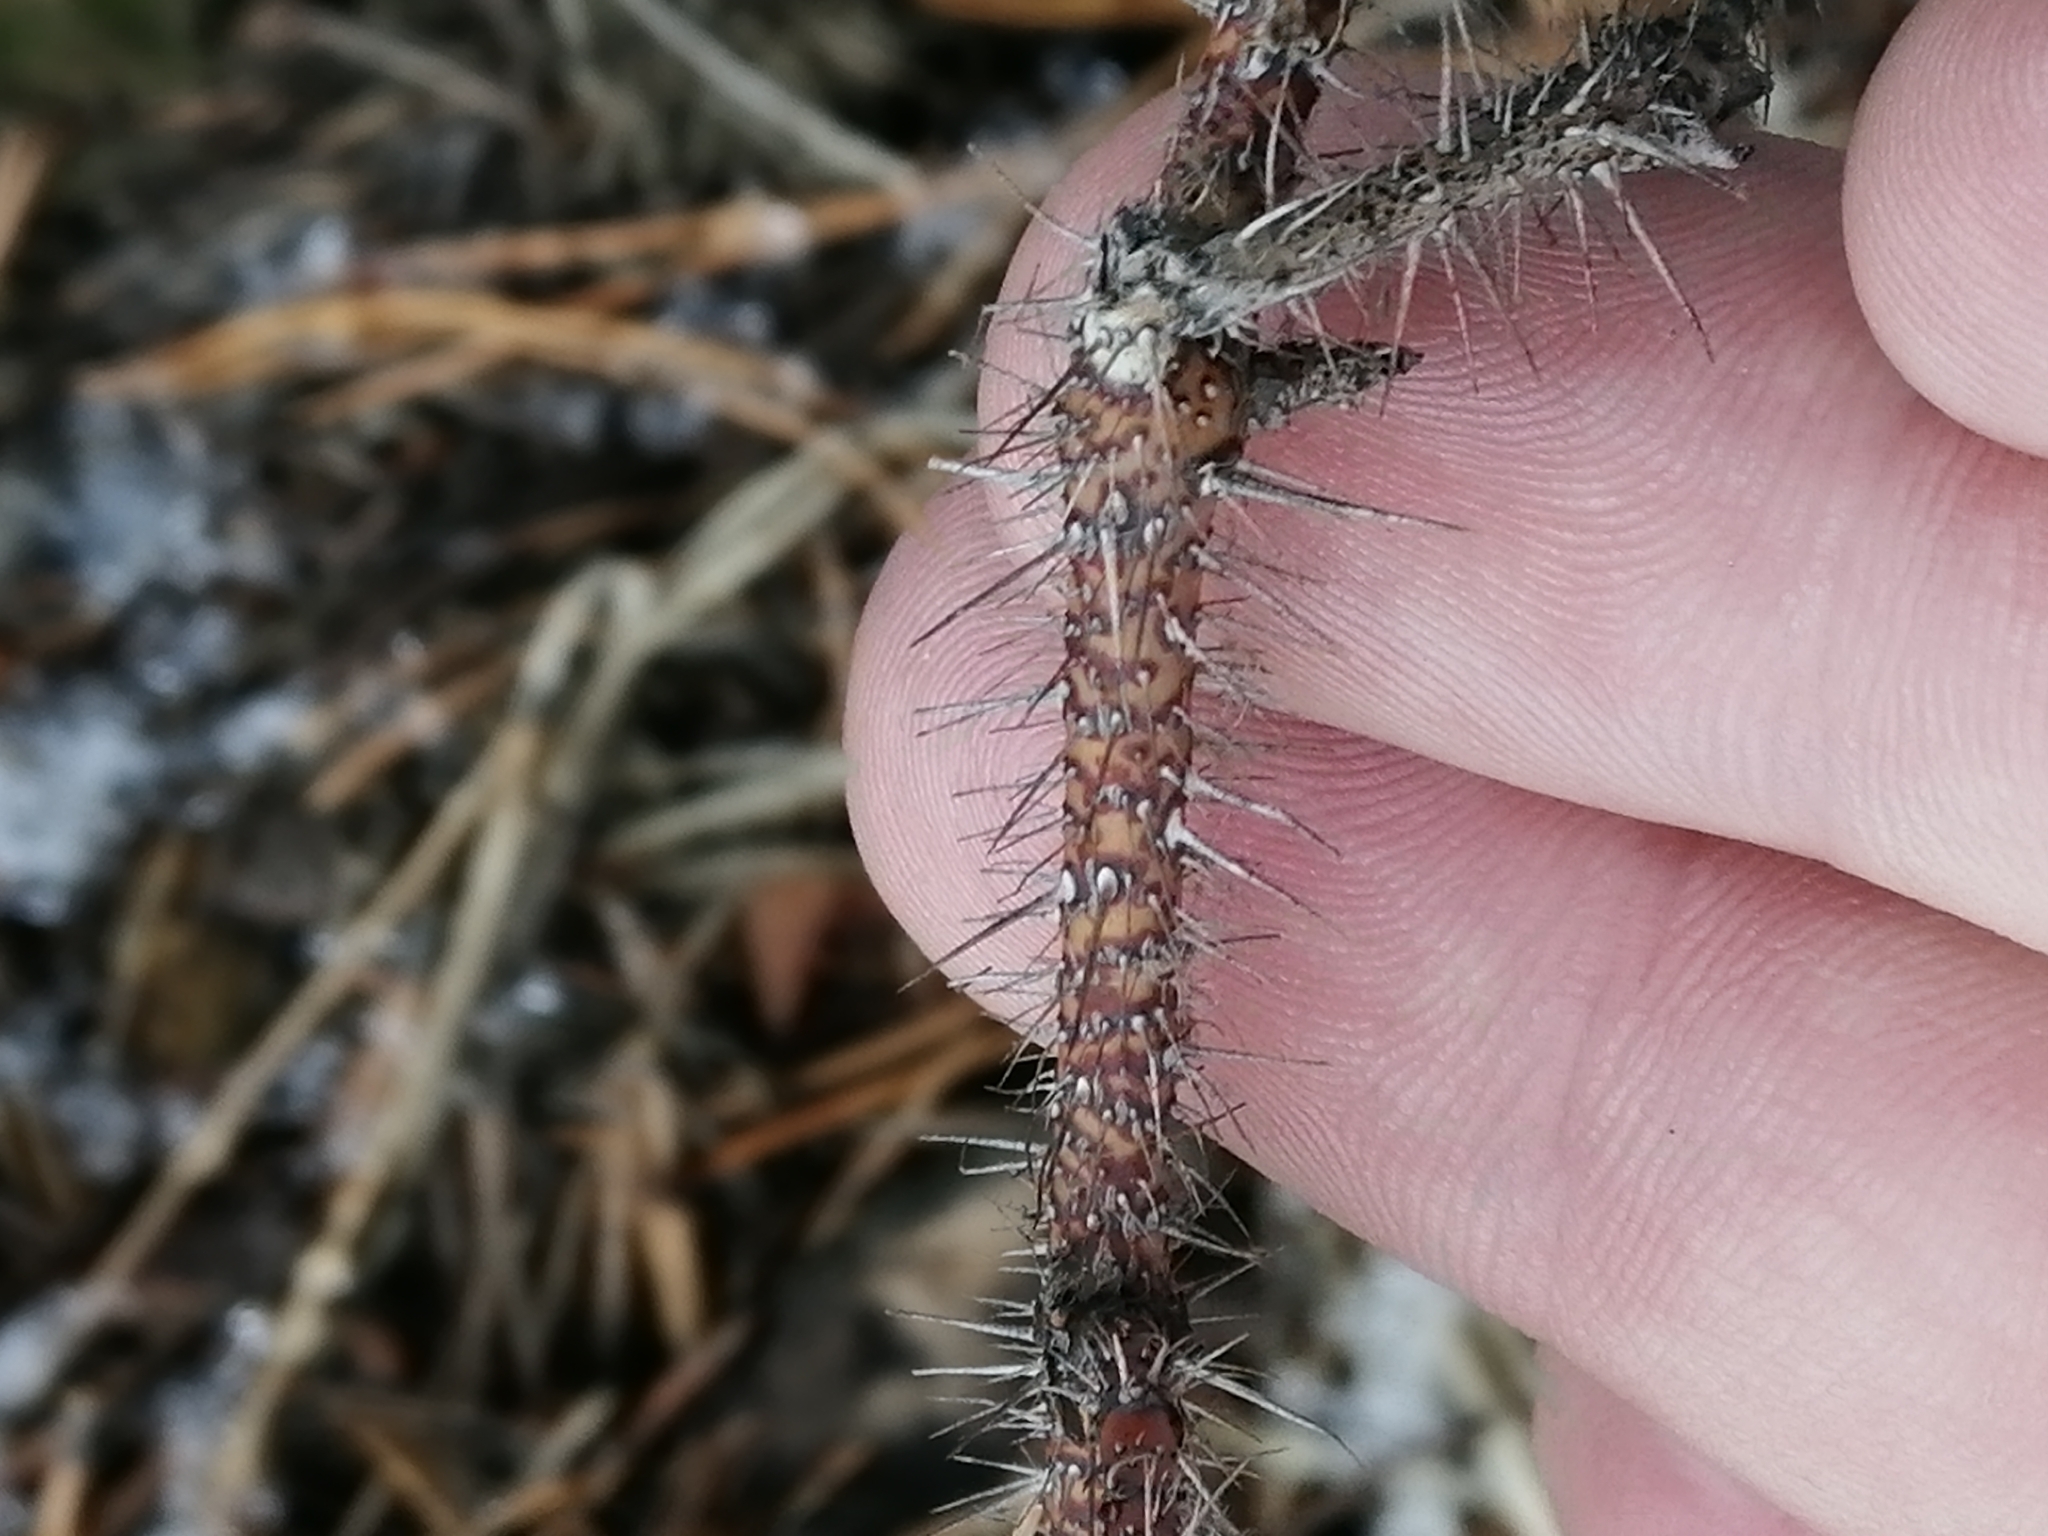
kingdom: Plantae
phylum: Tracheophyta
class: Magnoliopsida
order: Rosales
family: Rosaceae
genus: Rosa
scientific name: Rosa acicularis
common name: Prickly rose
